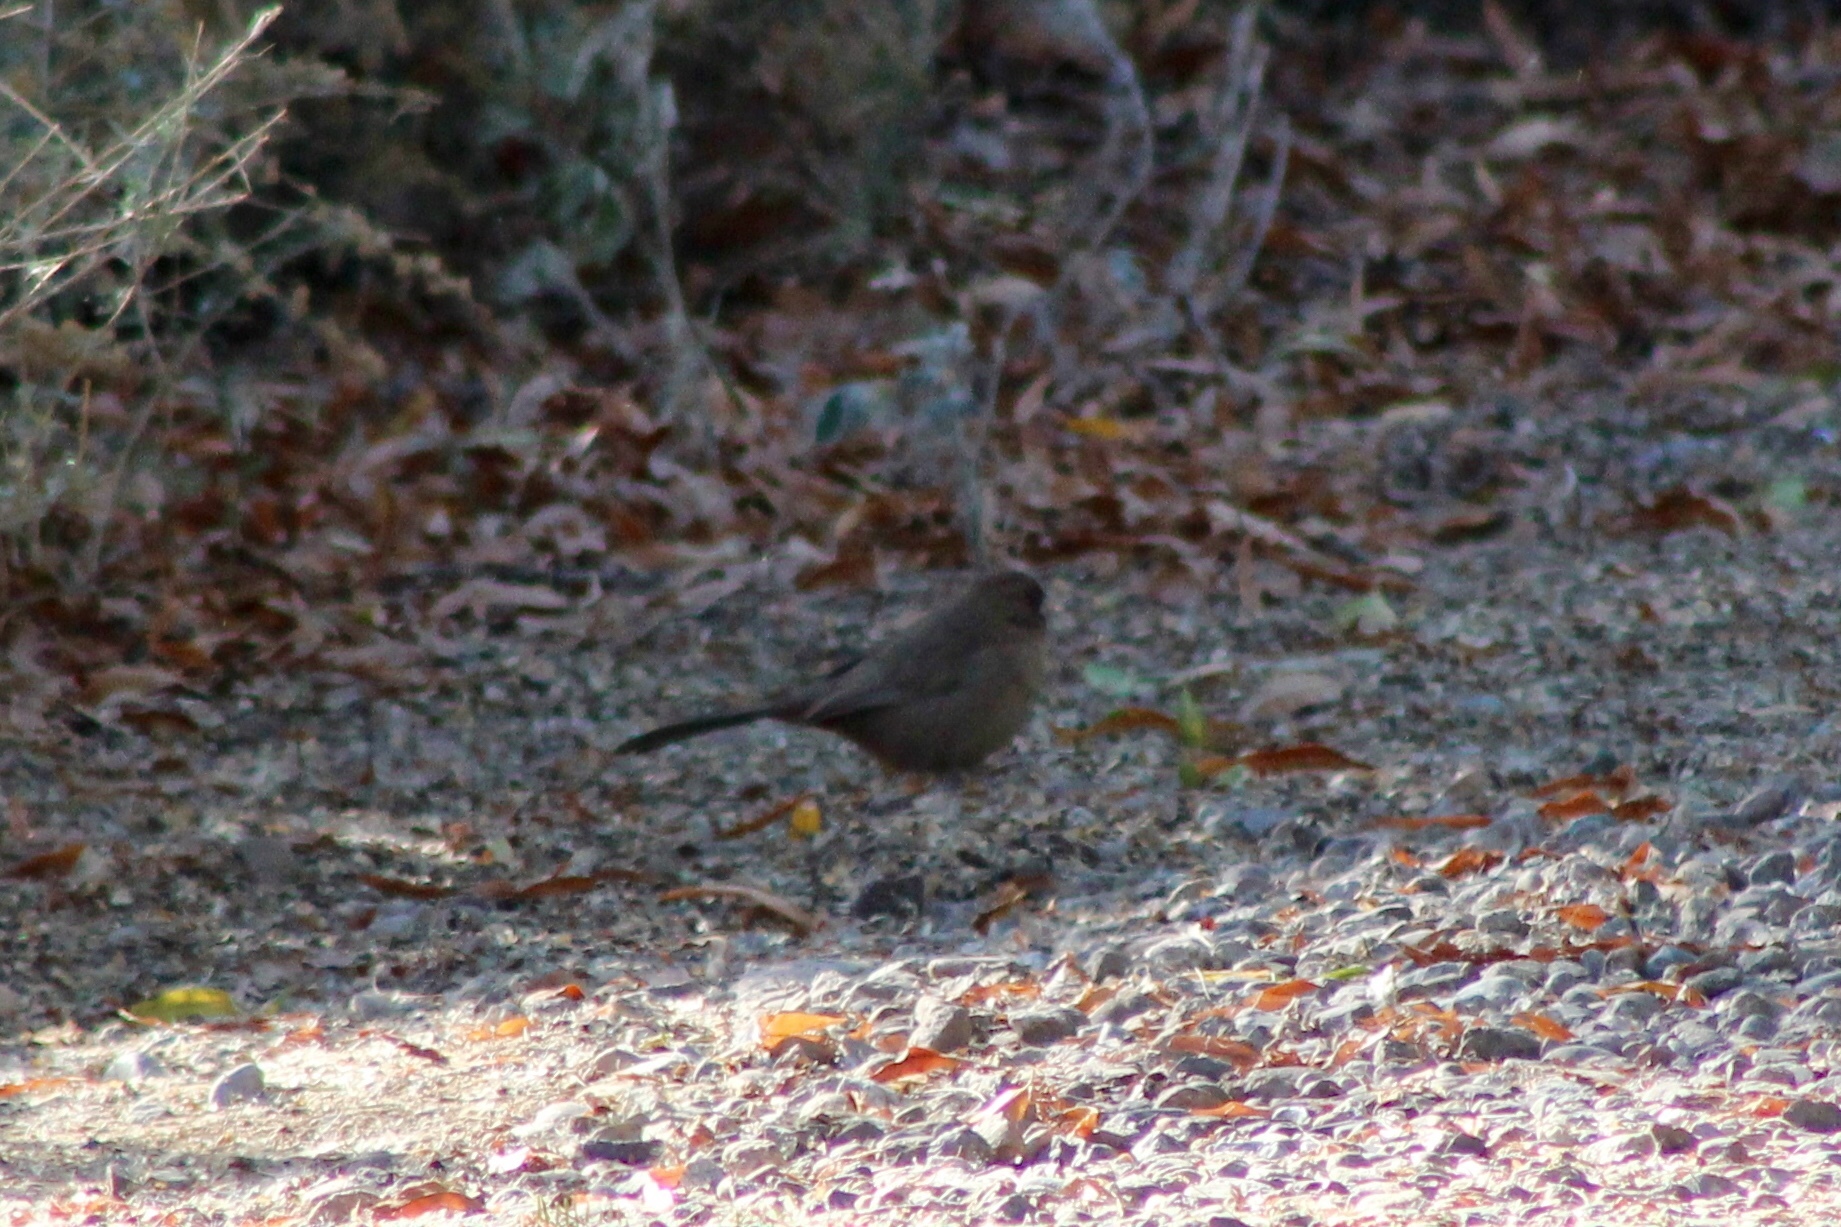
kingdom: Animalia
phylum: Chordata
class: Aves
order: Passeriformes
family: Passerellidae
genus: Melozone
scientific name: Melozone aberti
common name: Abert's towhee
